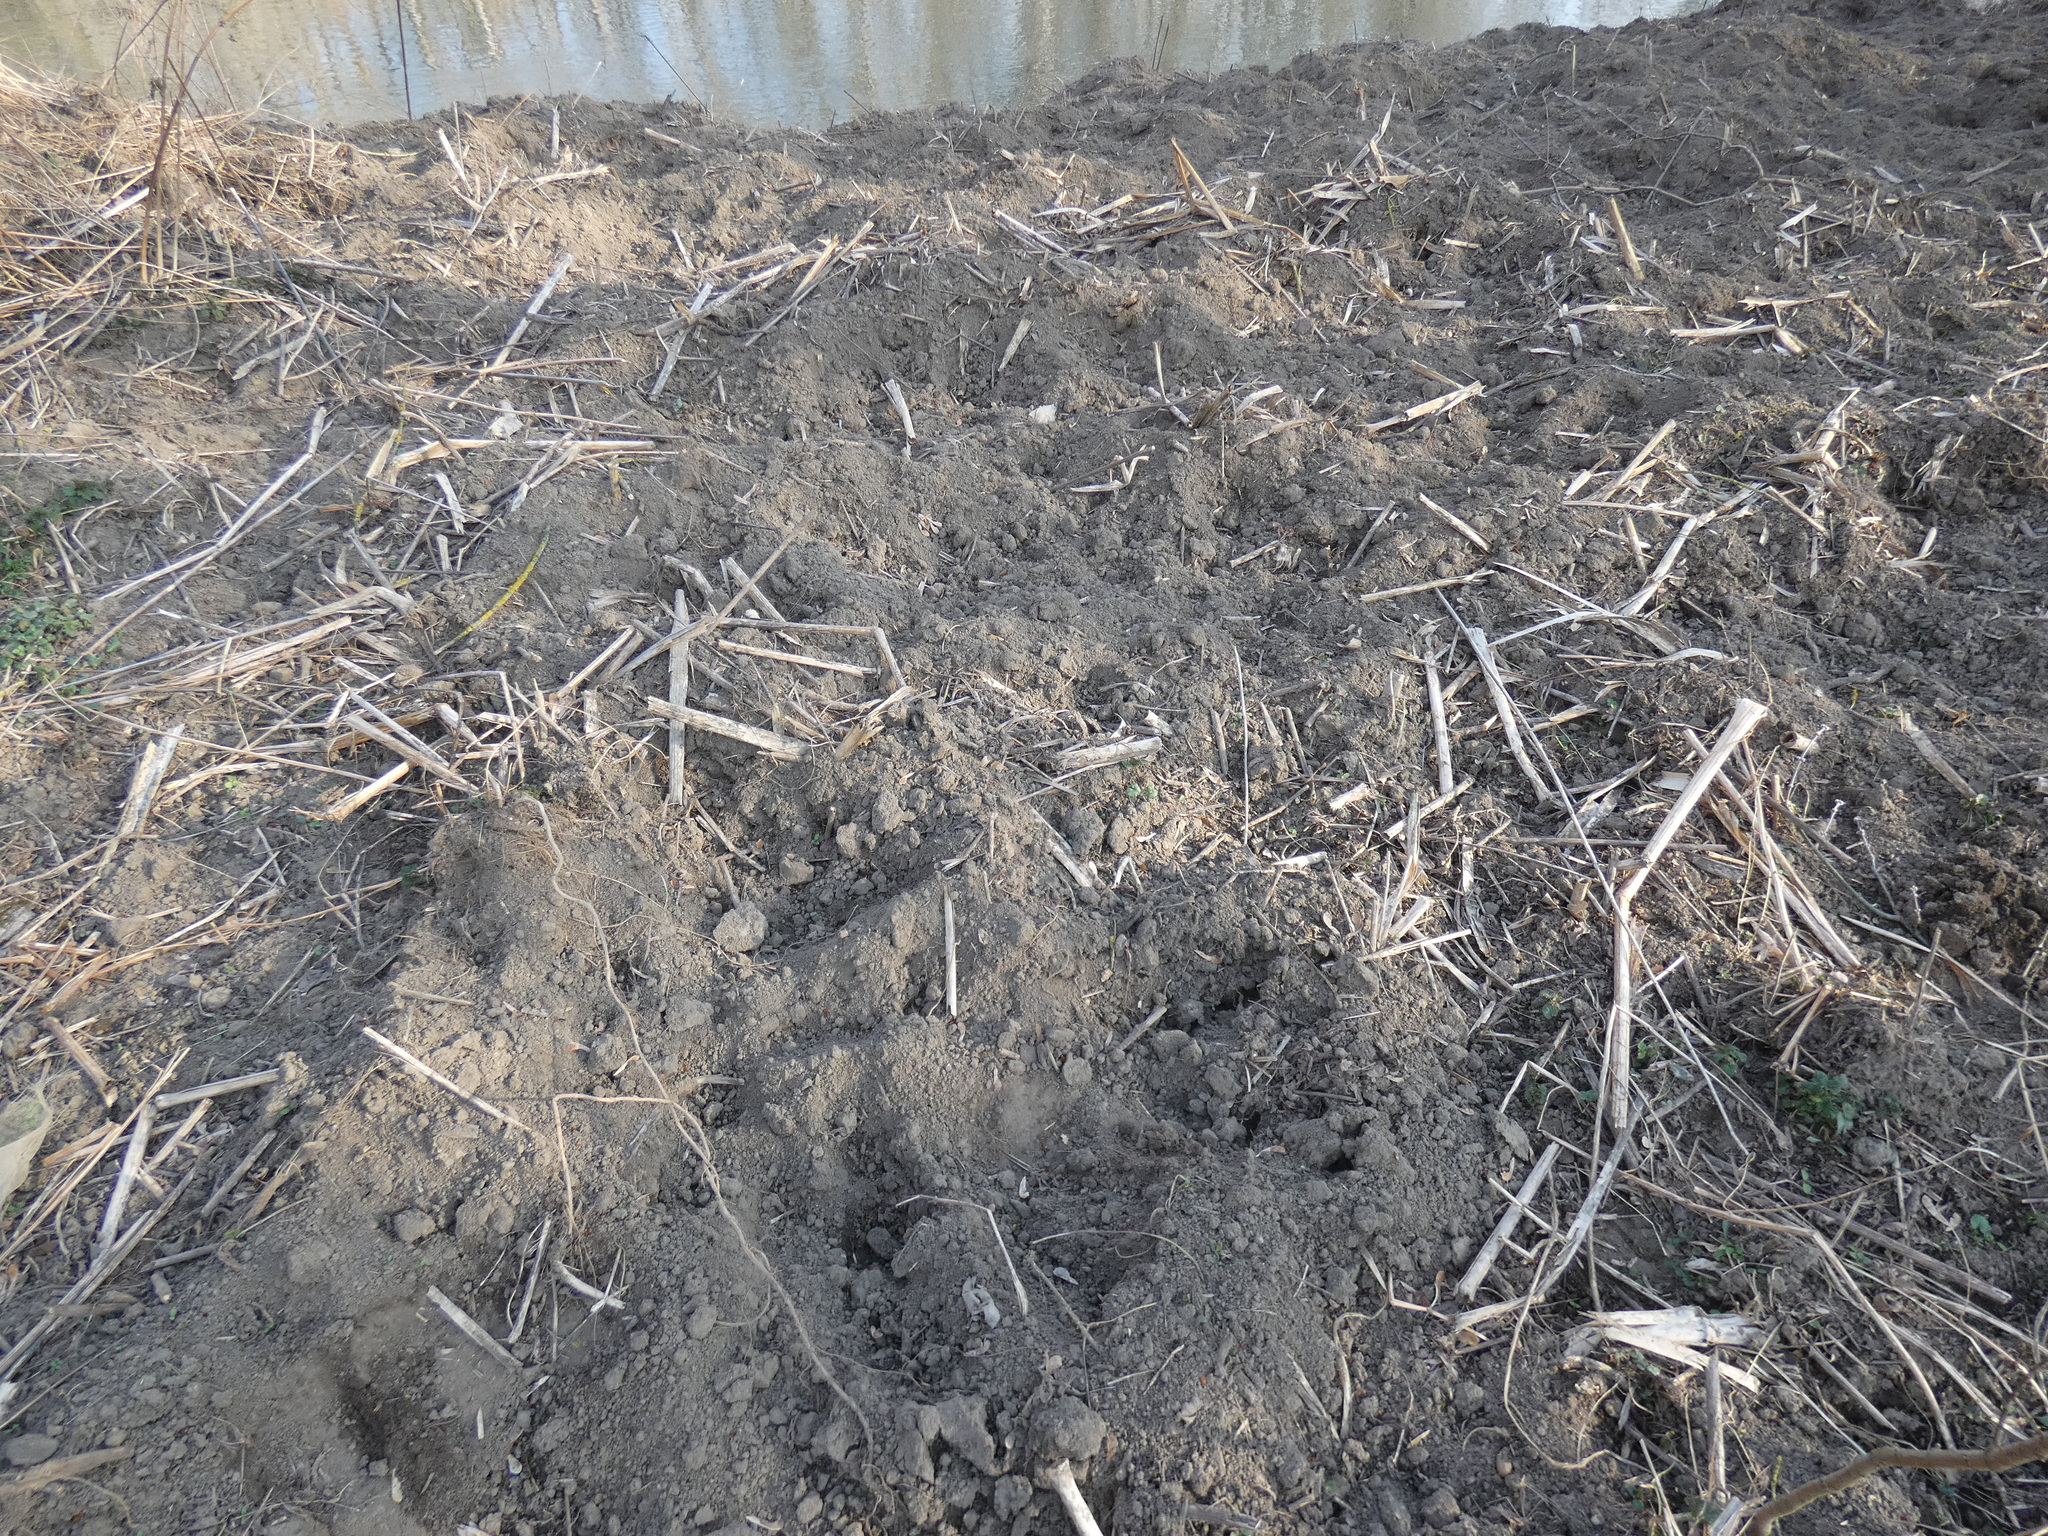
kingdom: Animalia
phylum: Chordata
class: Mammalia
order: Artiodactyla
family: Suidae
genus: Sus
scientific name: Sus scrofa
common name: Wild boar
